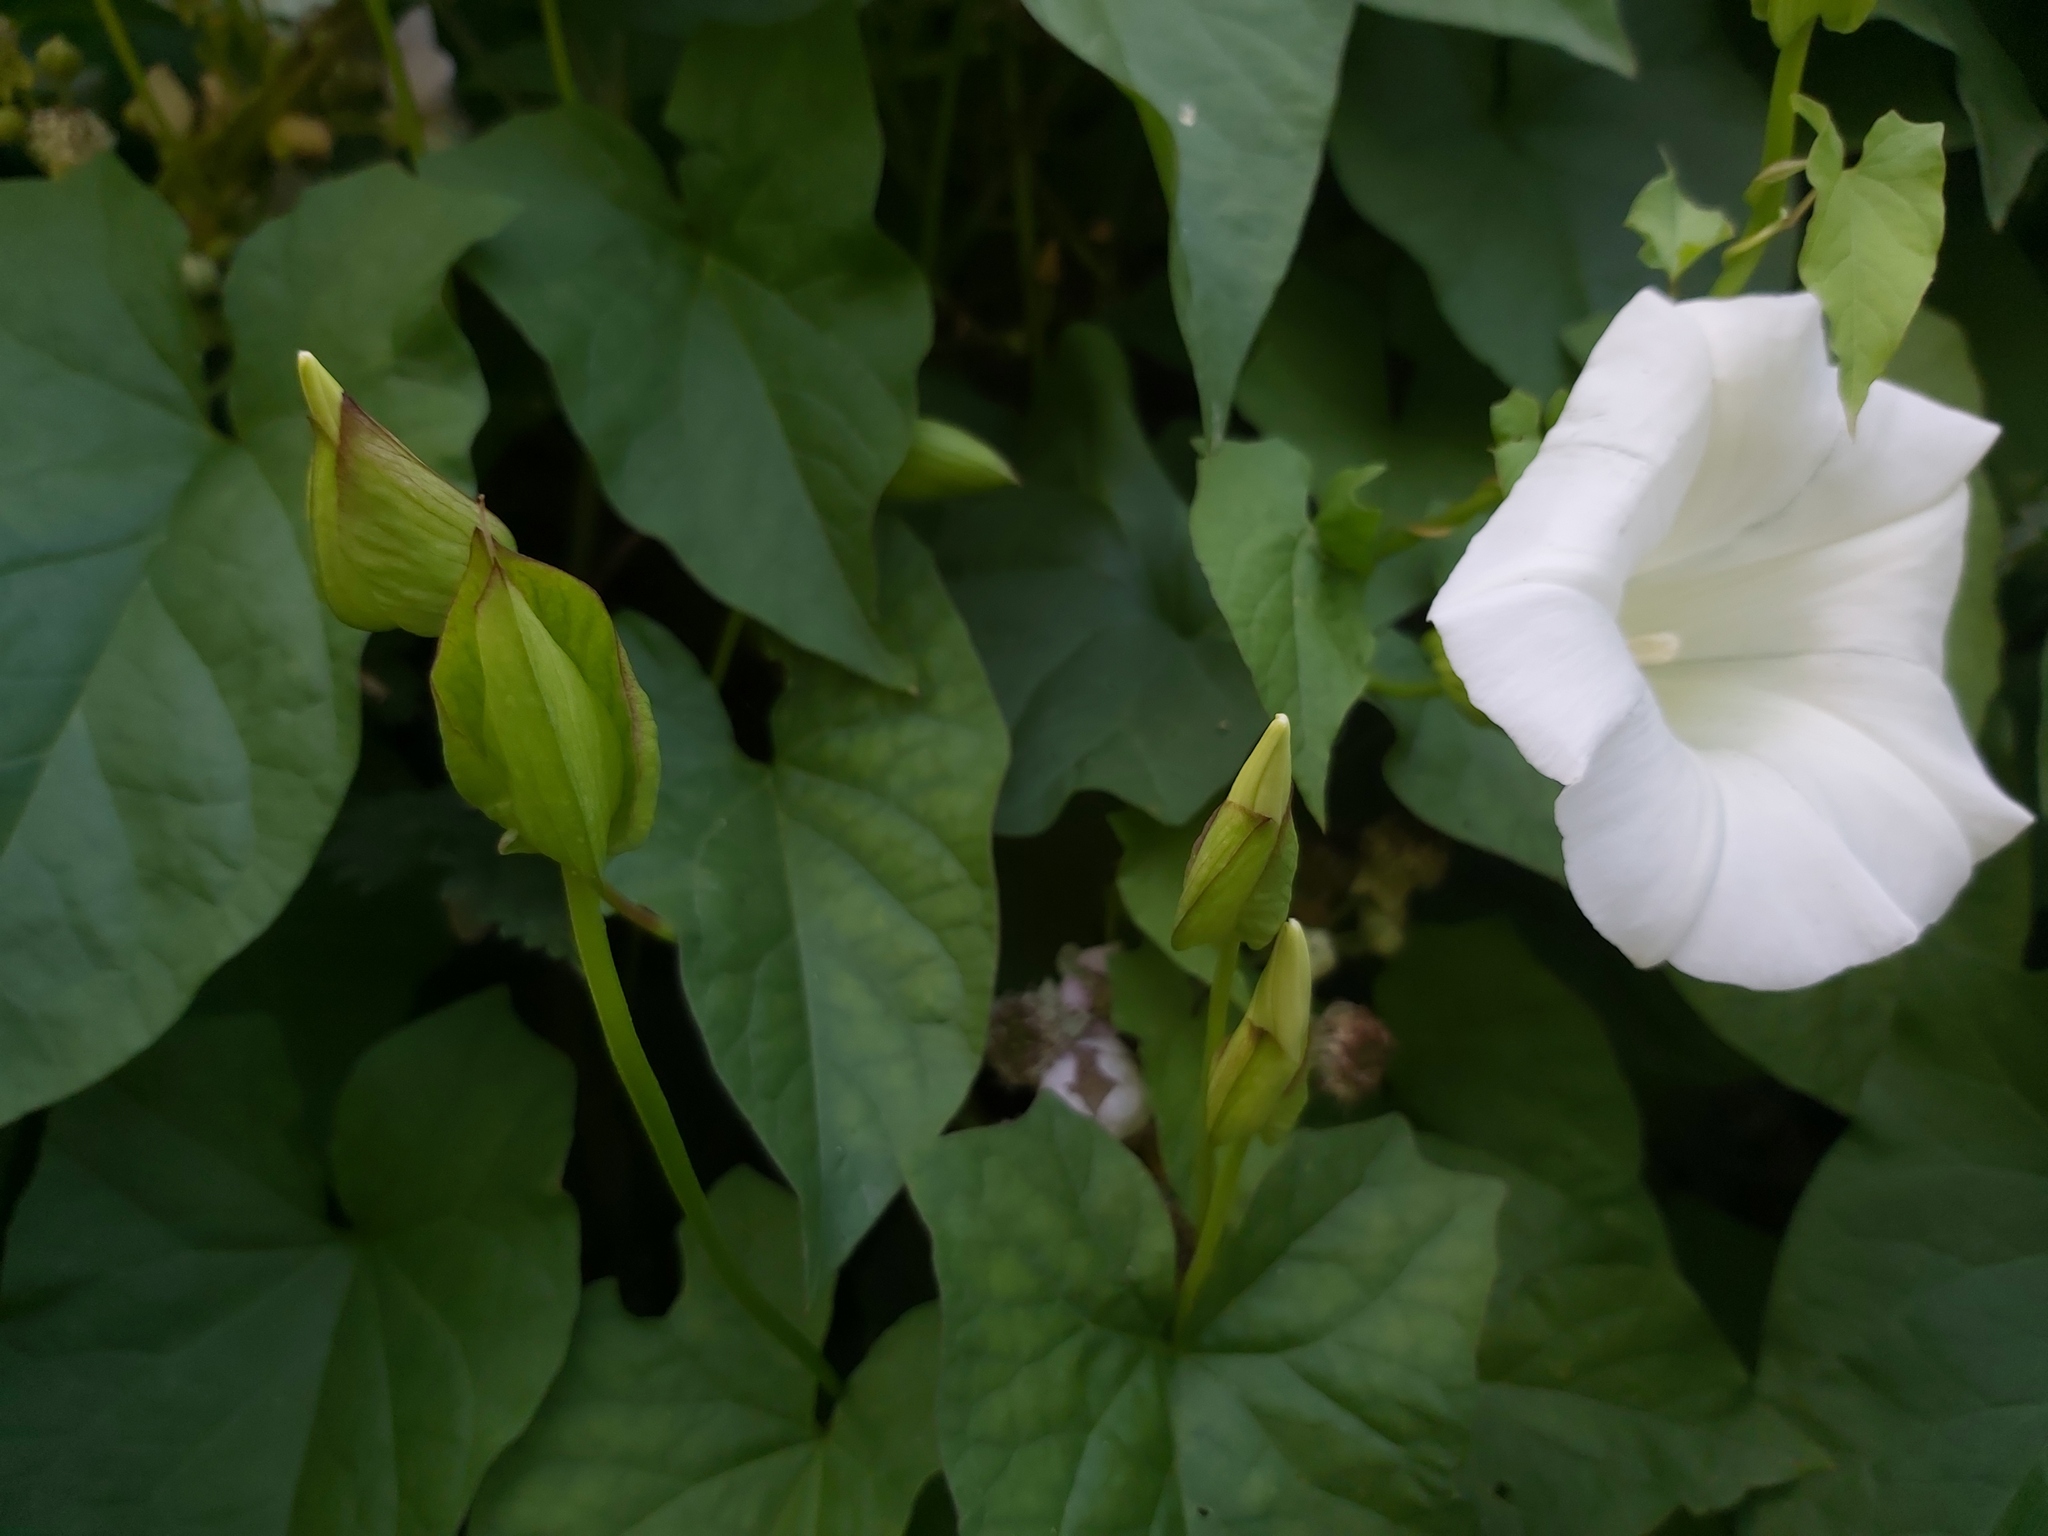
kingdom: Plantae
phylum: Tracheophyta
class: Magnoliopsida
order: Solanales
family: Convolvulaceae
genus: Calystegia
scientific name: Calystegia silvatica
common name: Large bindweed
